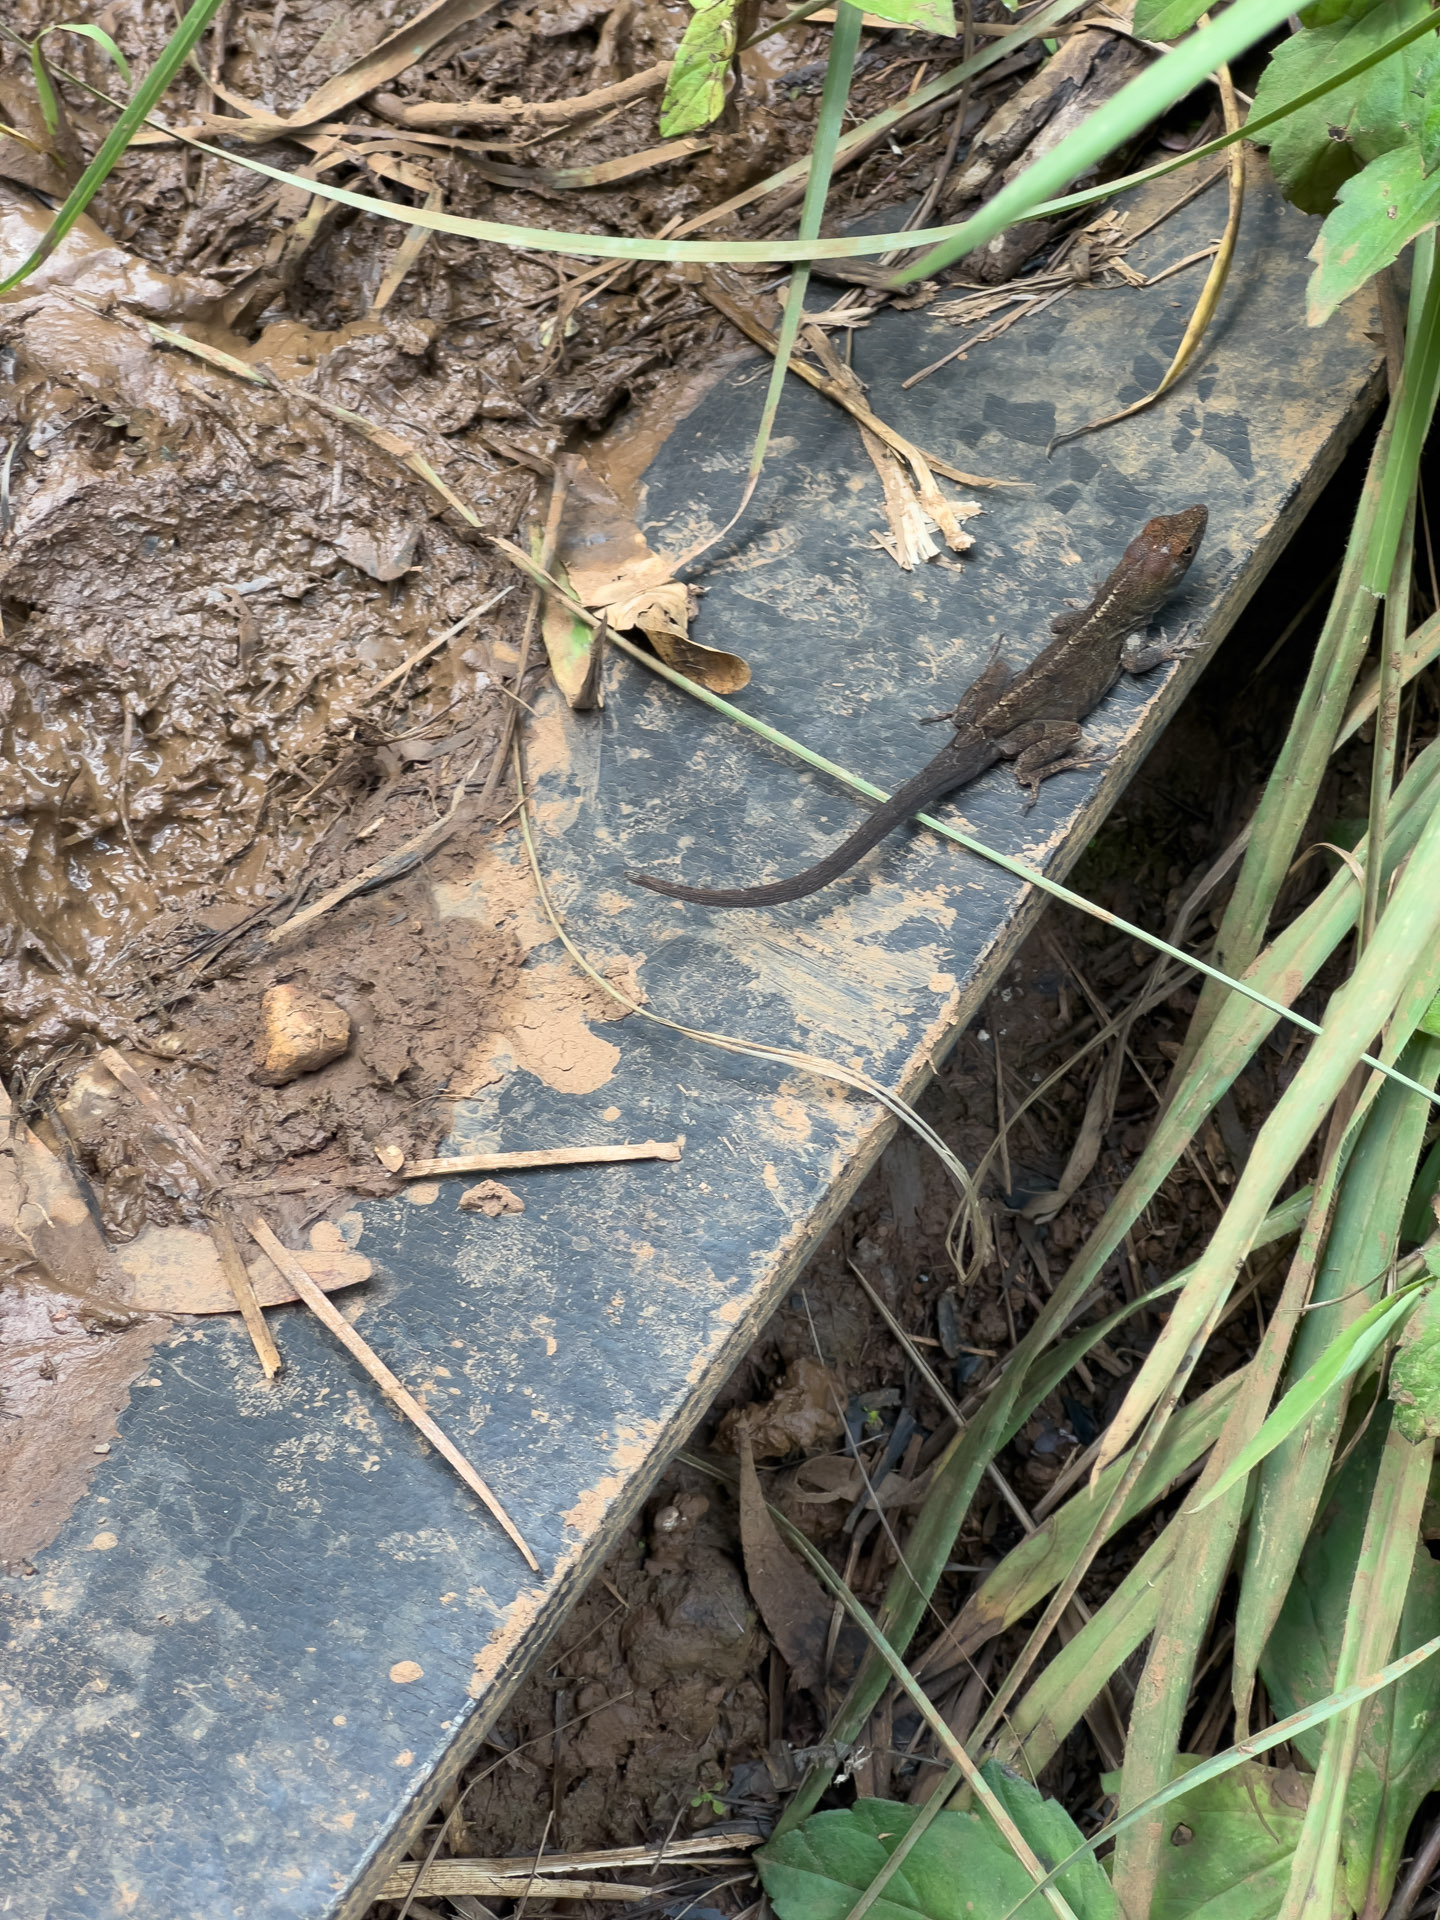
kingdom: Animalia
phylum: Chordata
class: Squamata
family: Dactyloidae
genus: Anolis
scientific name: Anolis sagrei
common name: Brown anole
